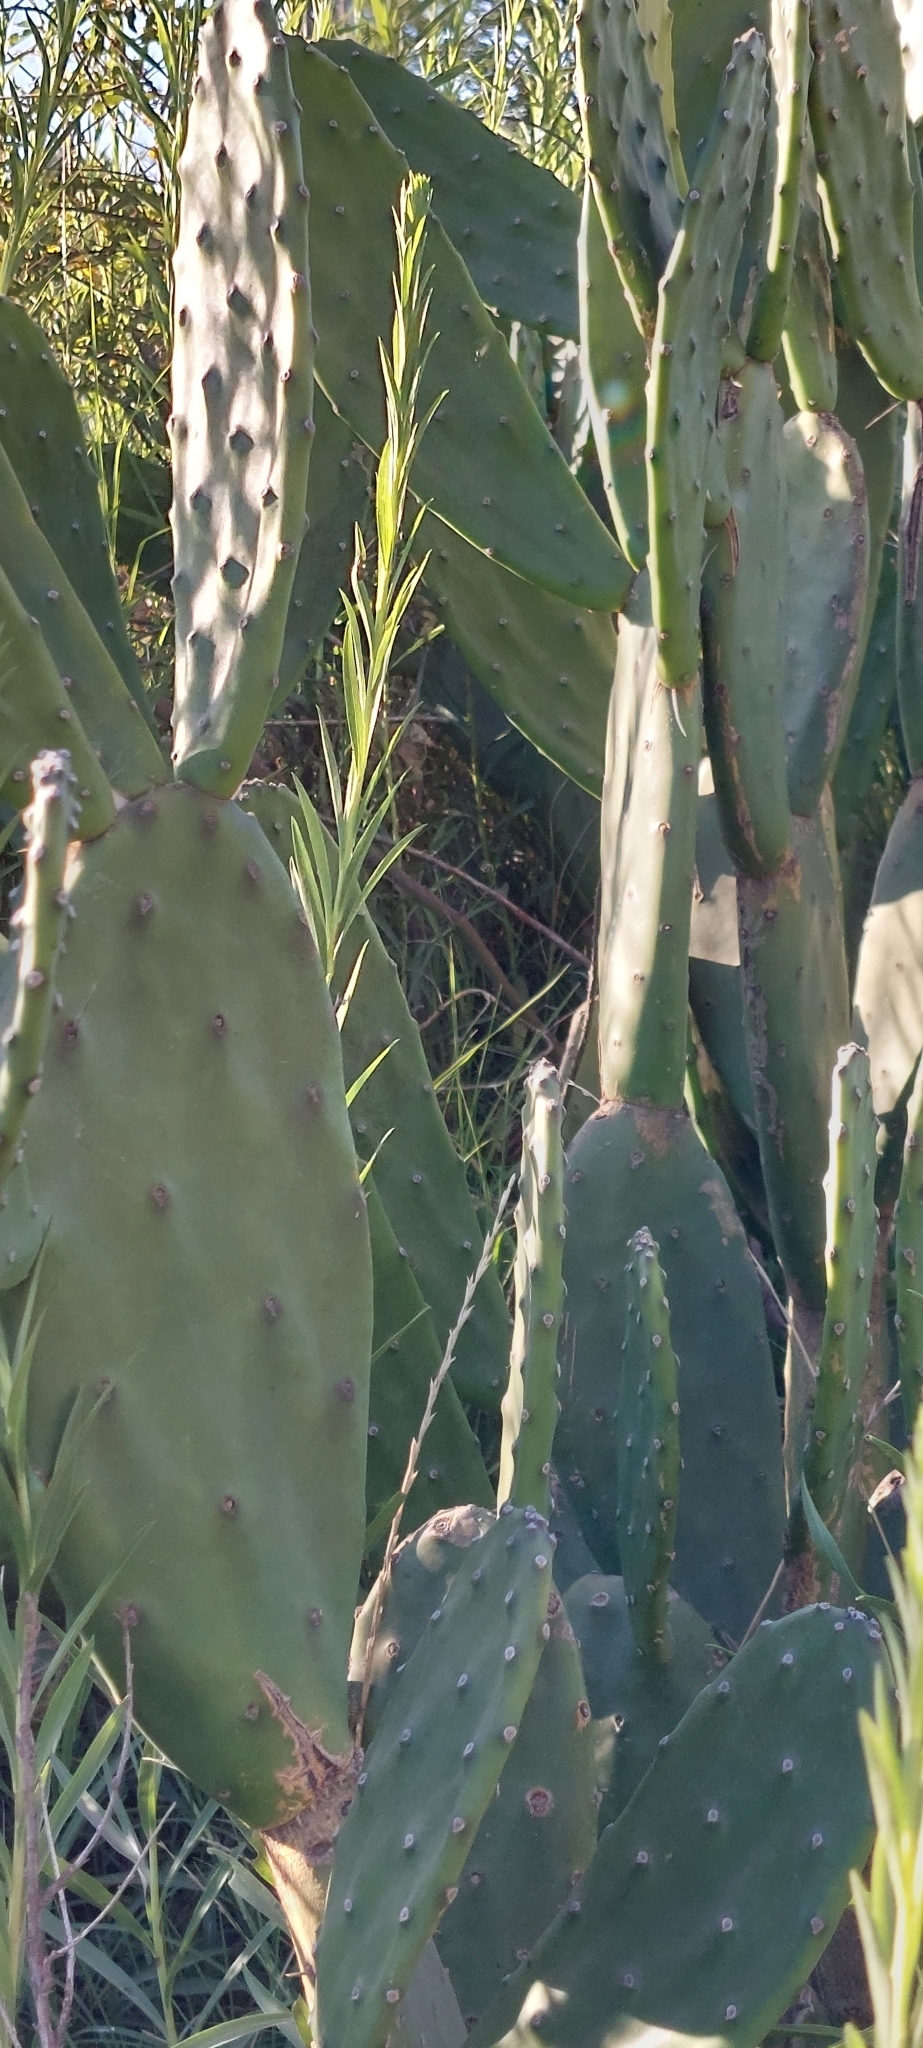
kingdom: Plantae
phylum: Tracheophyta
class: Magnoliopsida
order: Caryophyllales
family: Cactaceae
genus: Opuntia
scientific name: Opuntia elata
